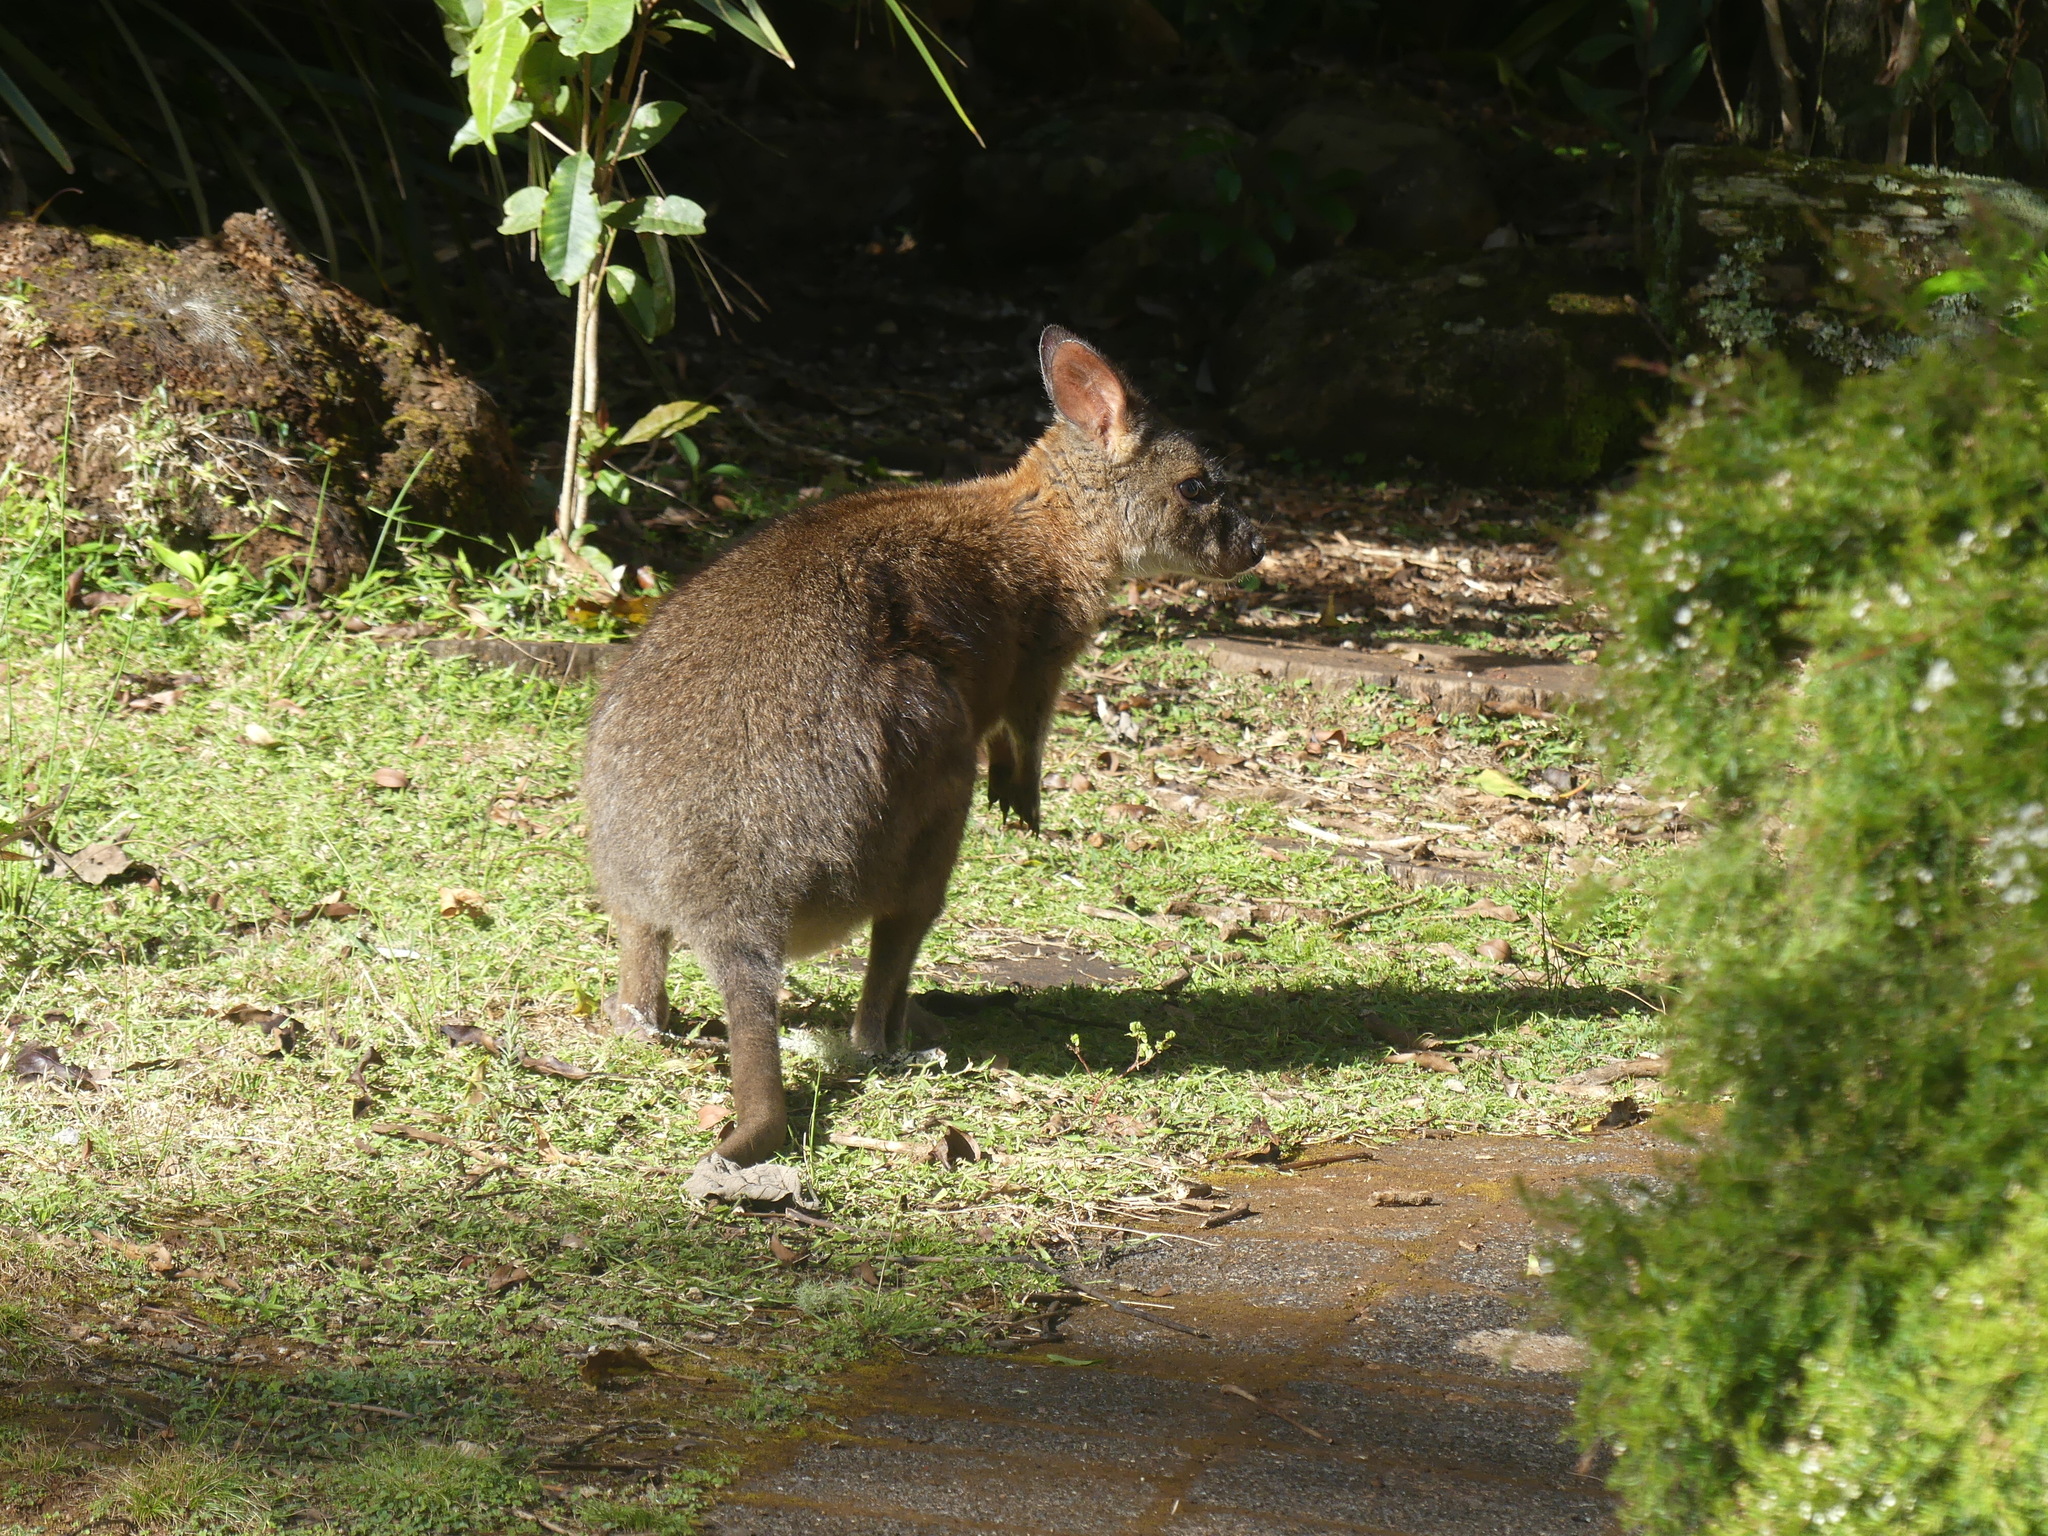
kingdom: Animalia
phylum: Chordata
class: Mammalia
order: Diprotodontia
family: Macropodidae
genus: Thylogale
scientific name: Thylogale thetis
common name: Red-necked pademelon
